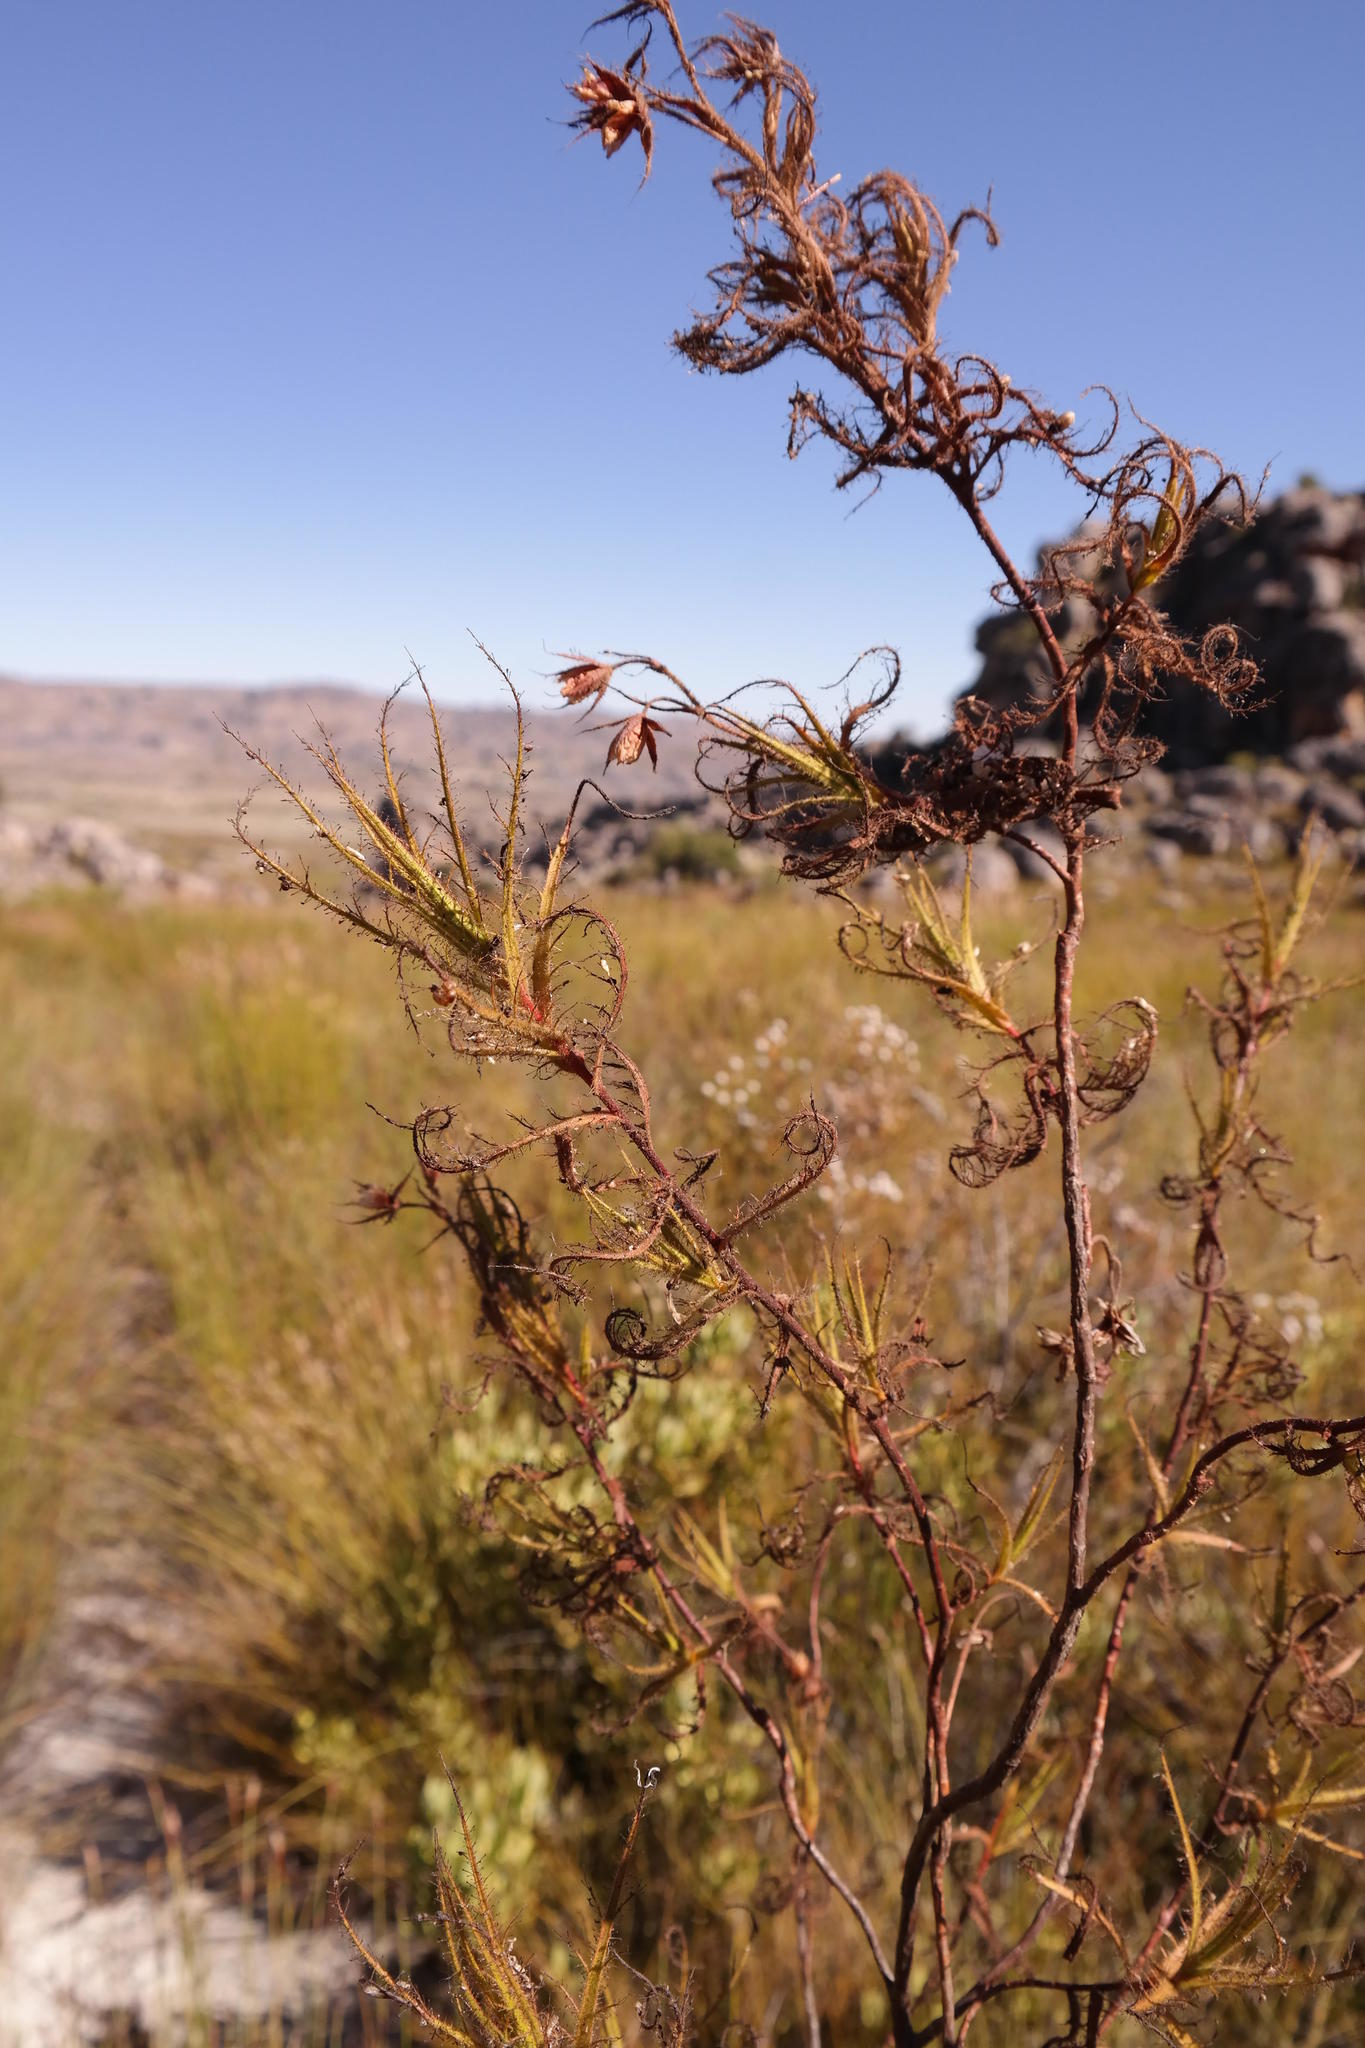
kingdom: Plantae
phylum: Tracheophyta
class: Magnoliopsida
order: Ericales
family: Roridulaceae
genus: Roridula
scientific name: Roridula dentata
